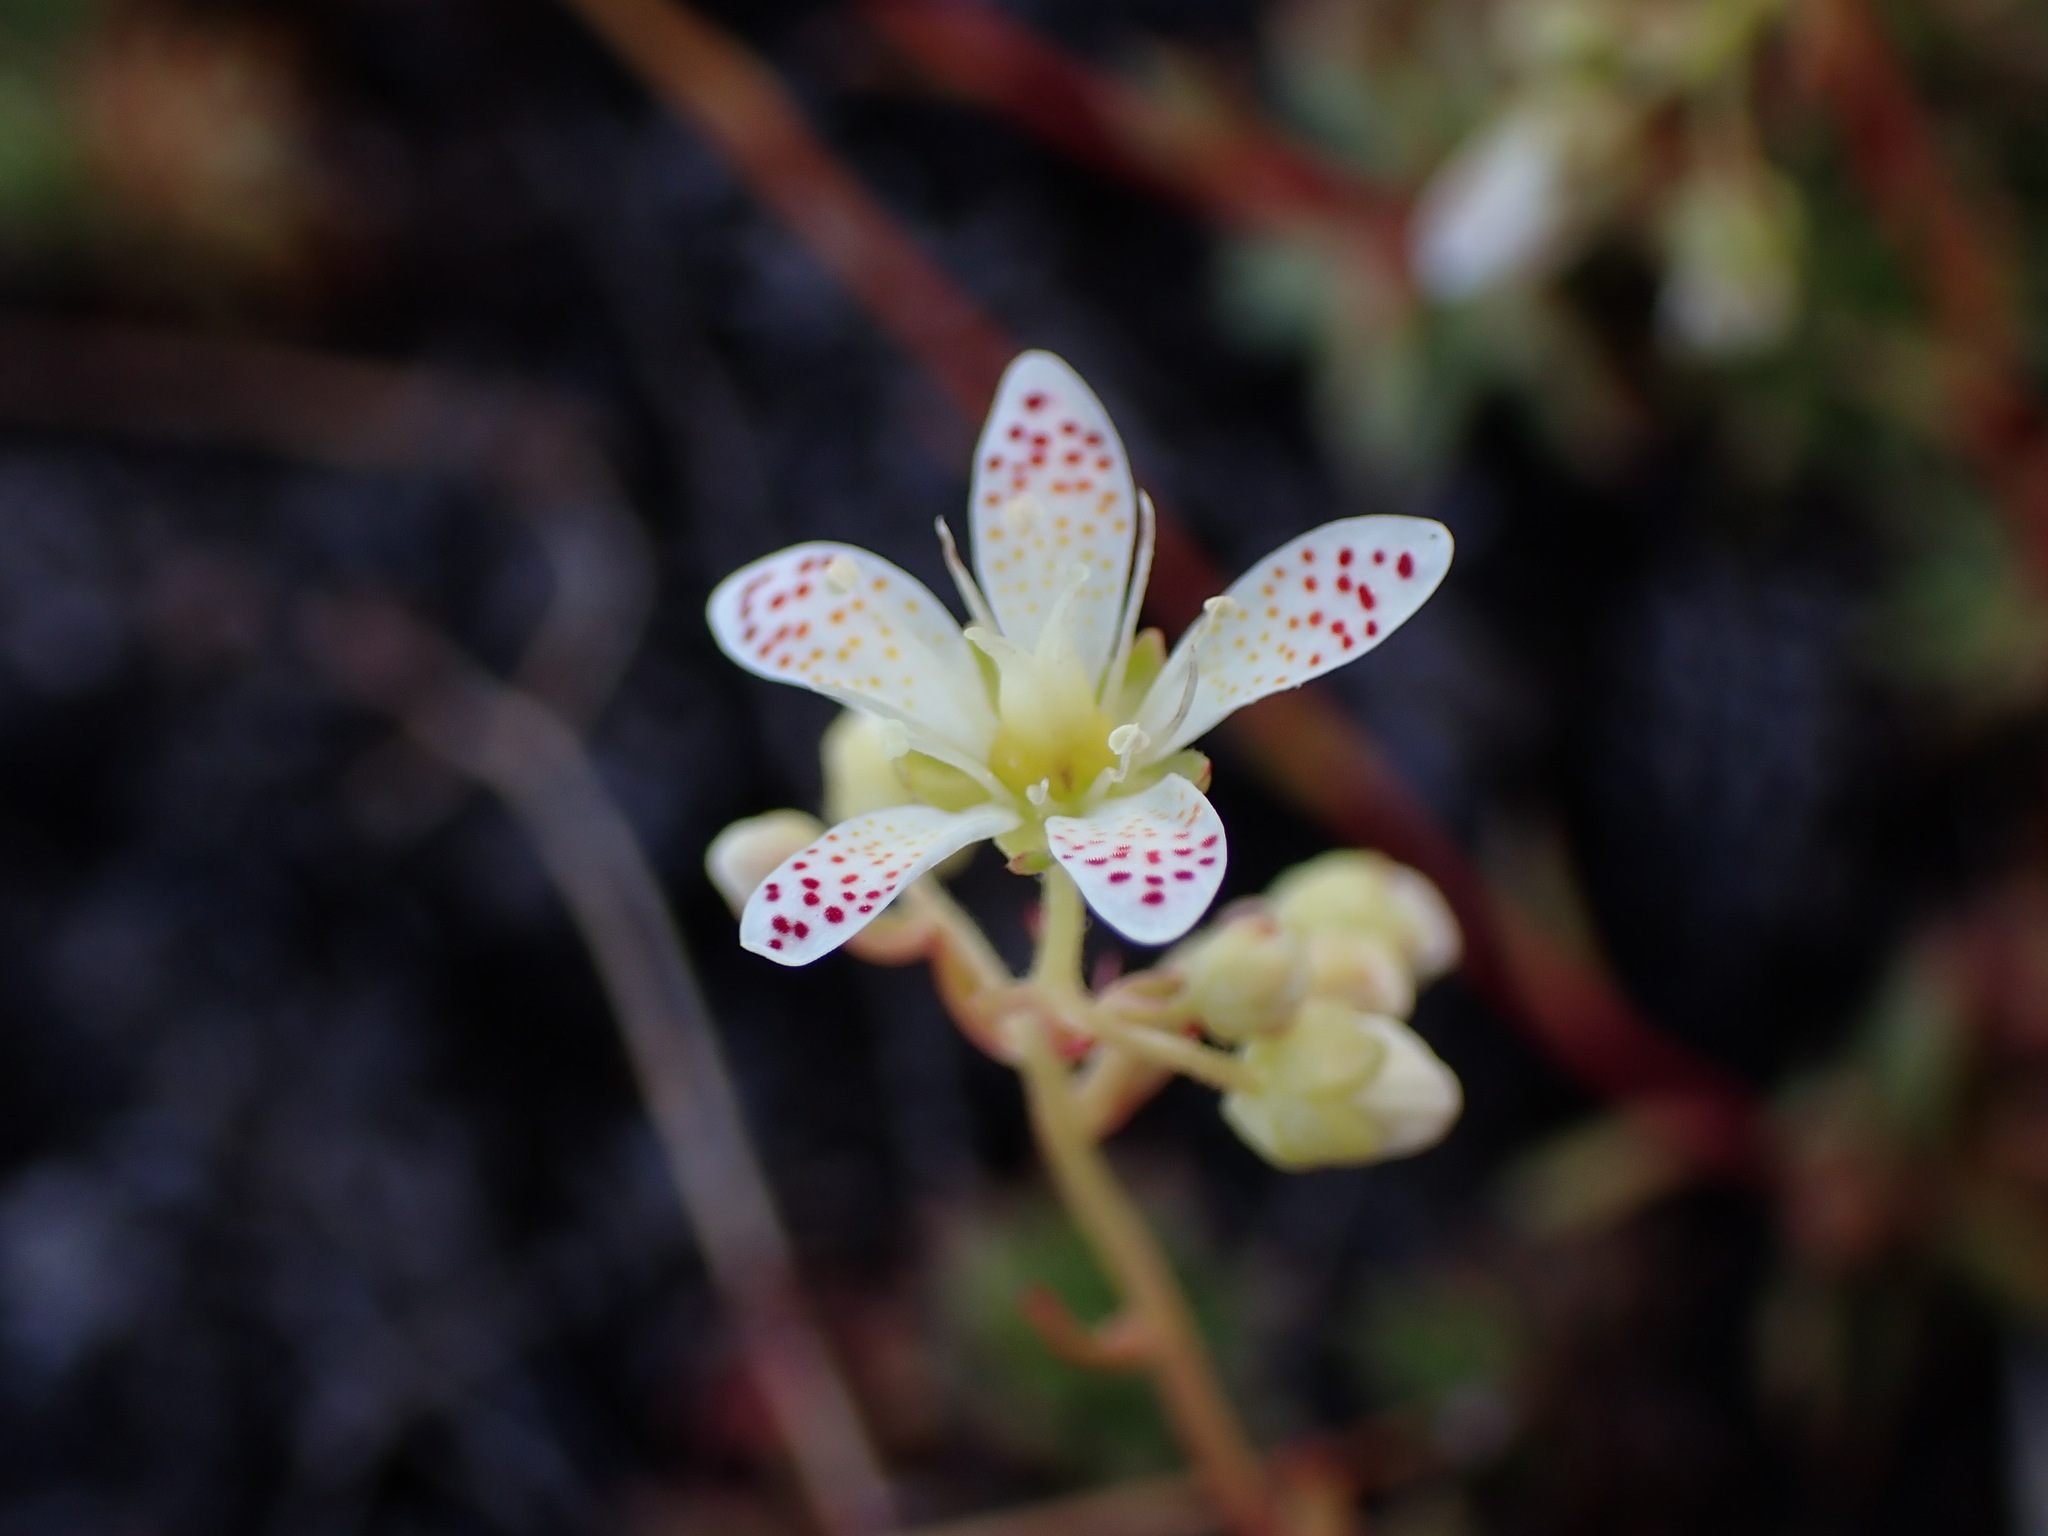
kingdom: Plantae
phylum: Tracheophyta
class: Magnoliopsida
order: Saxifragales
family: Saxifragaceae
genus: Saxifraga
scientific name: Saxifraga tricuspidata
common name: Prickly saxifrage
